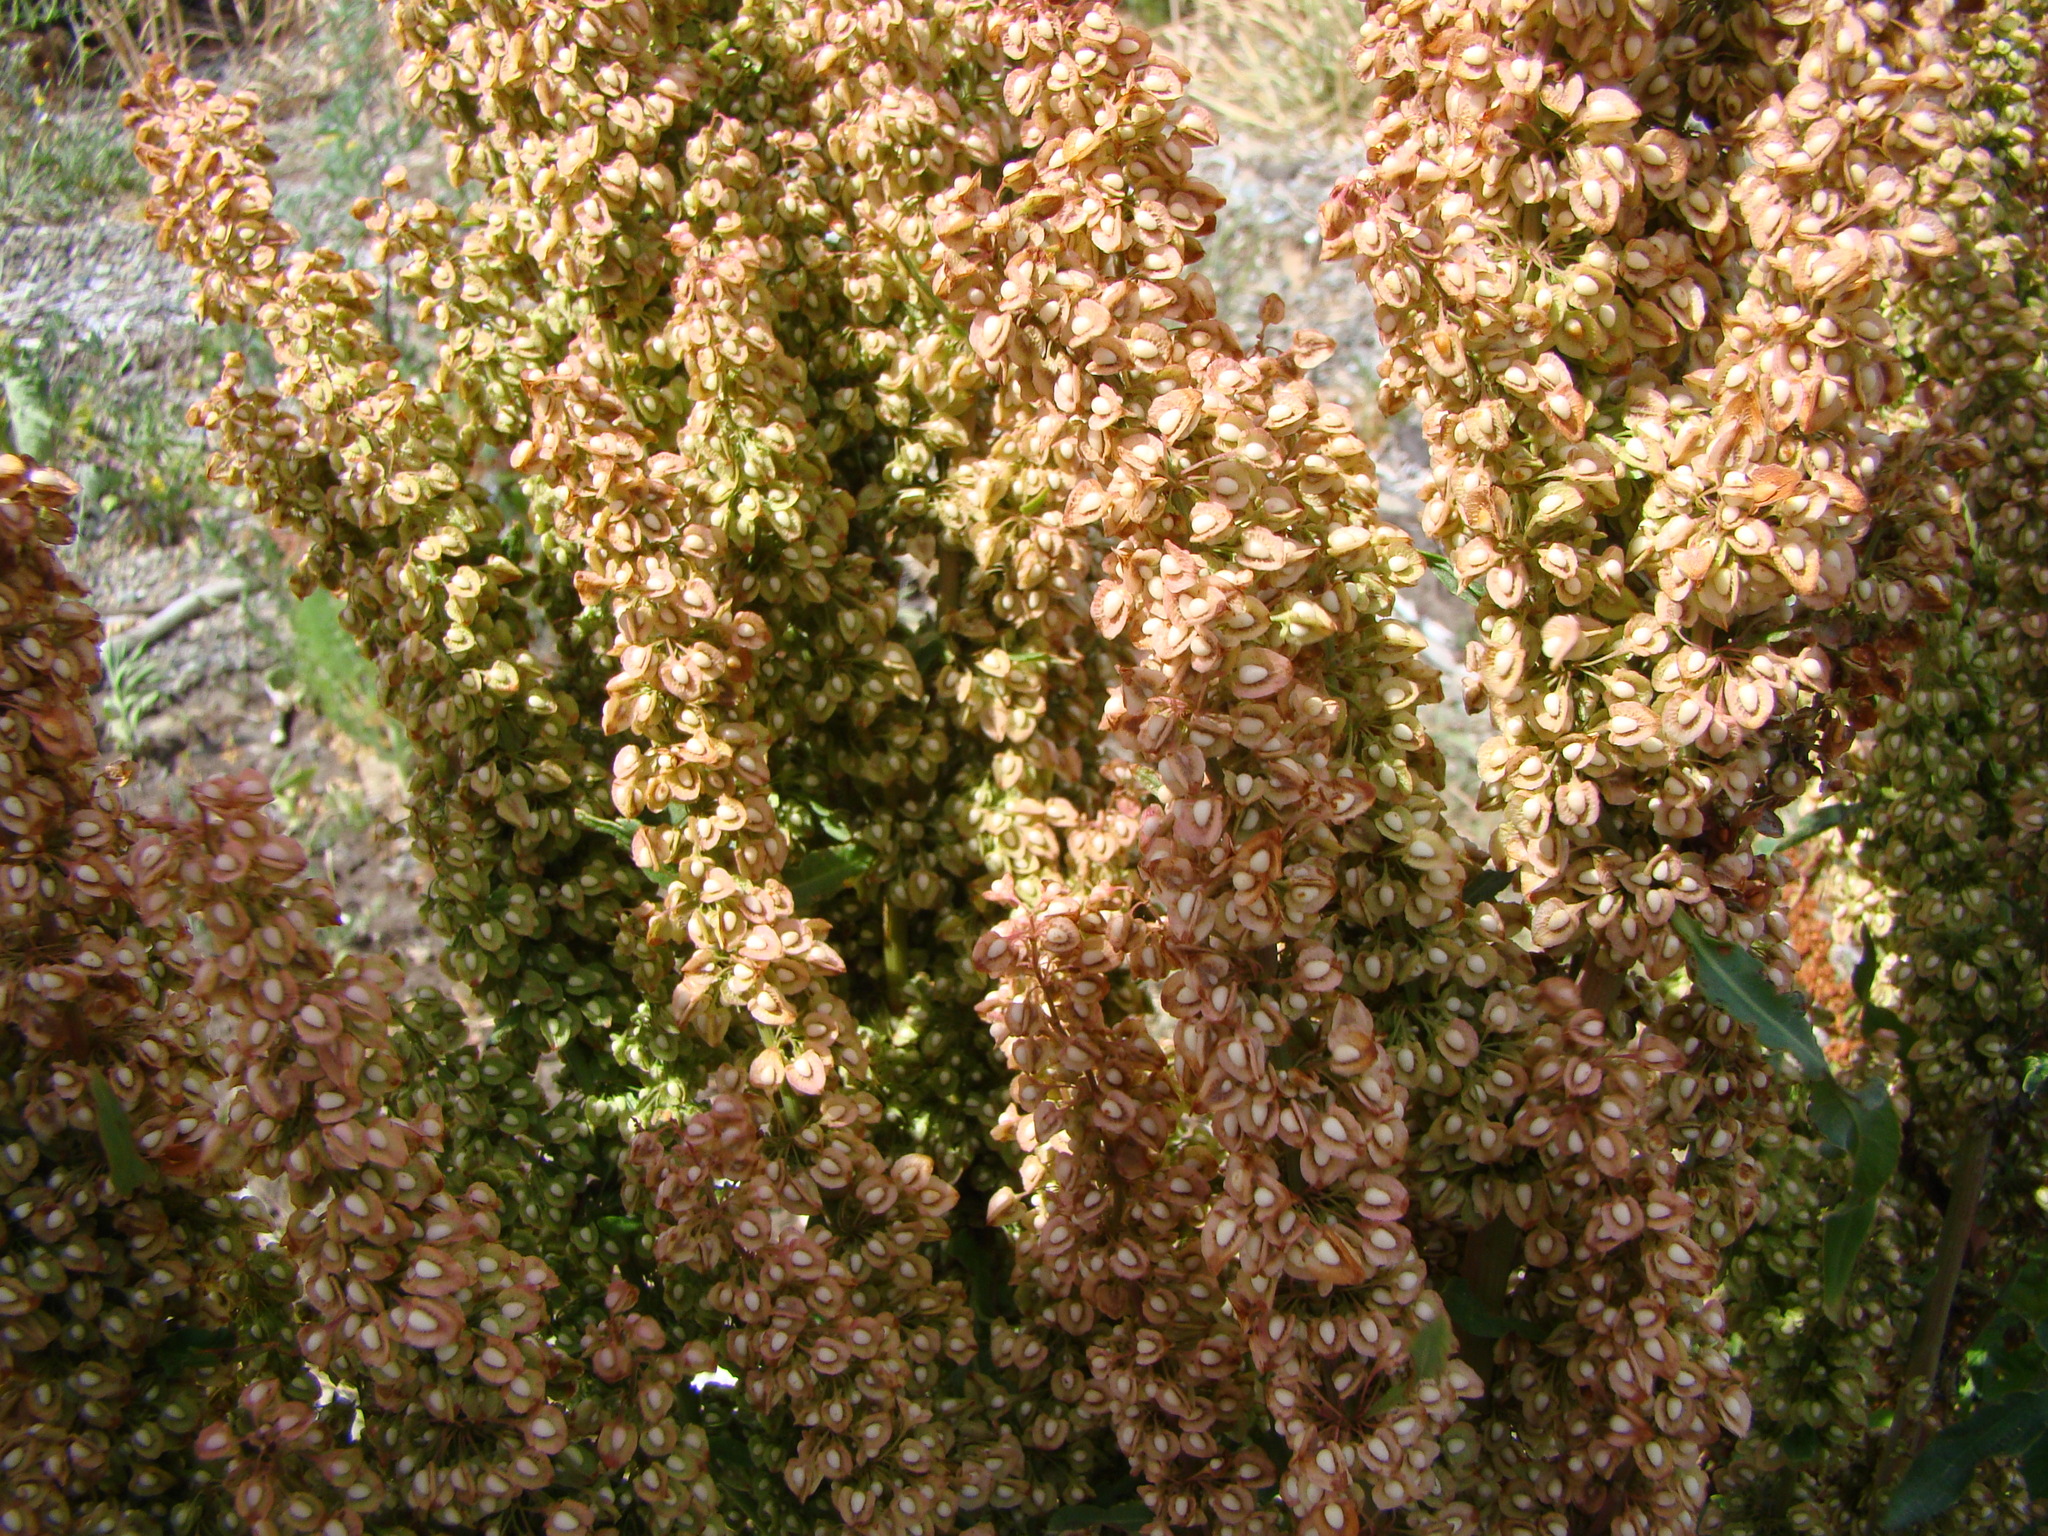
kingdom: Plantae
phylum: Tracheophyta
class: Magnoliopsida
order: Caryophyllales
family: Polygonaceae
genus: Rumex
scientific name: Rumex crispus
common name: Curled dock
